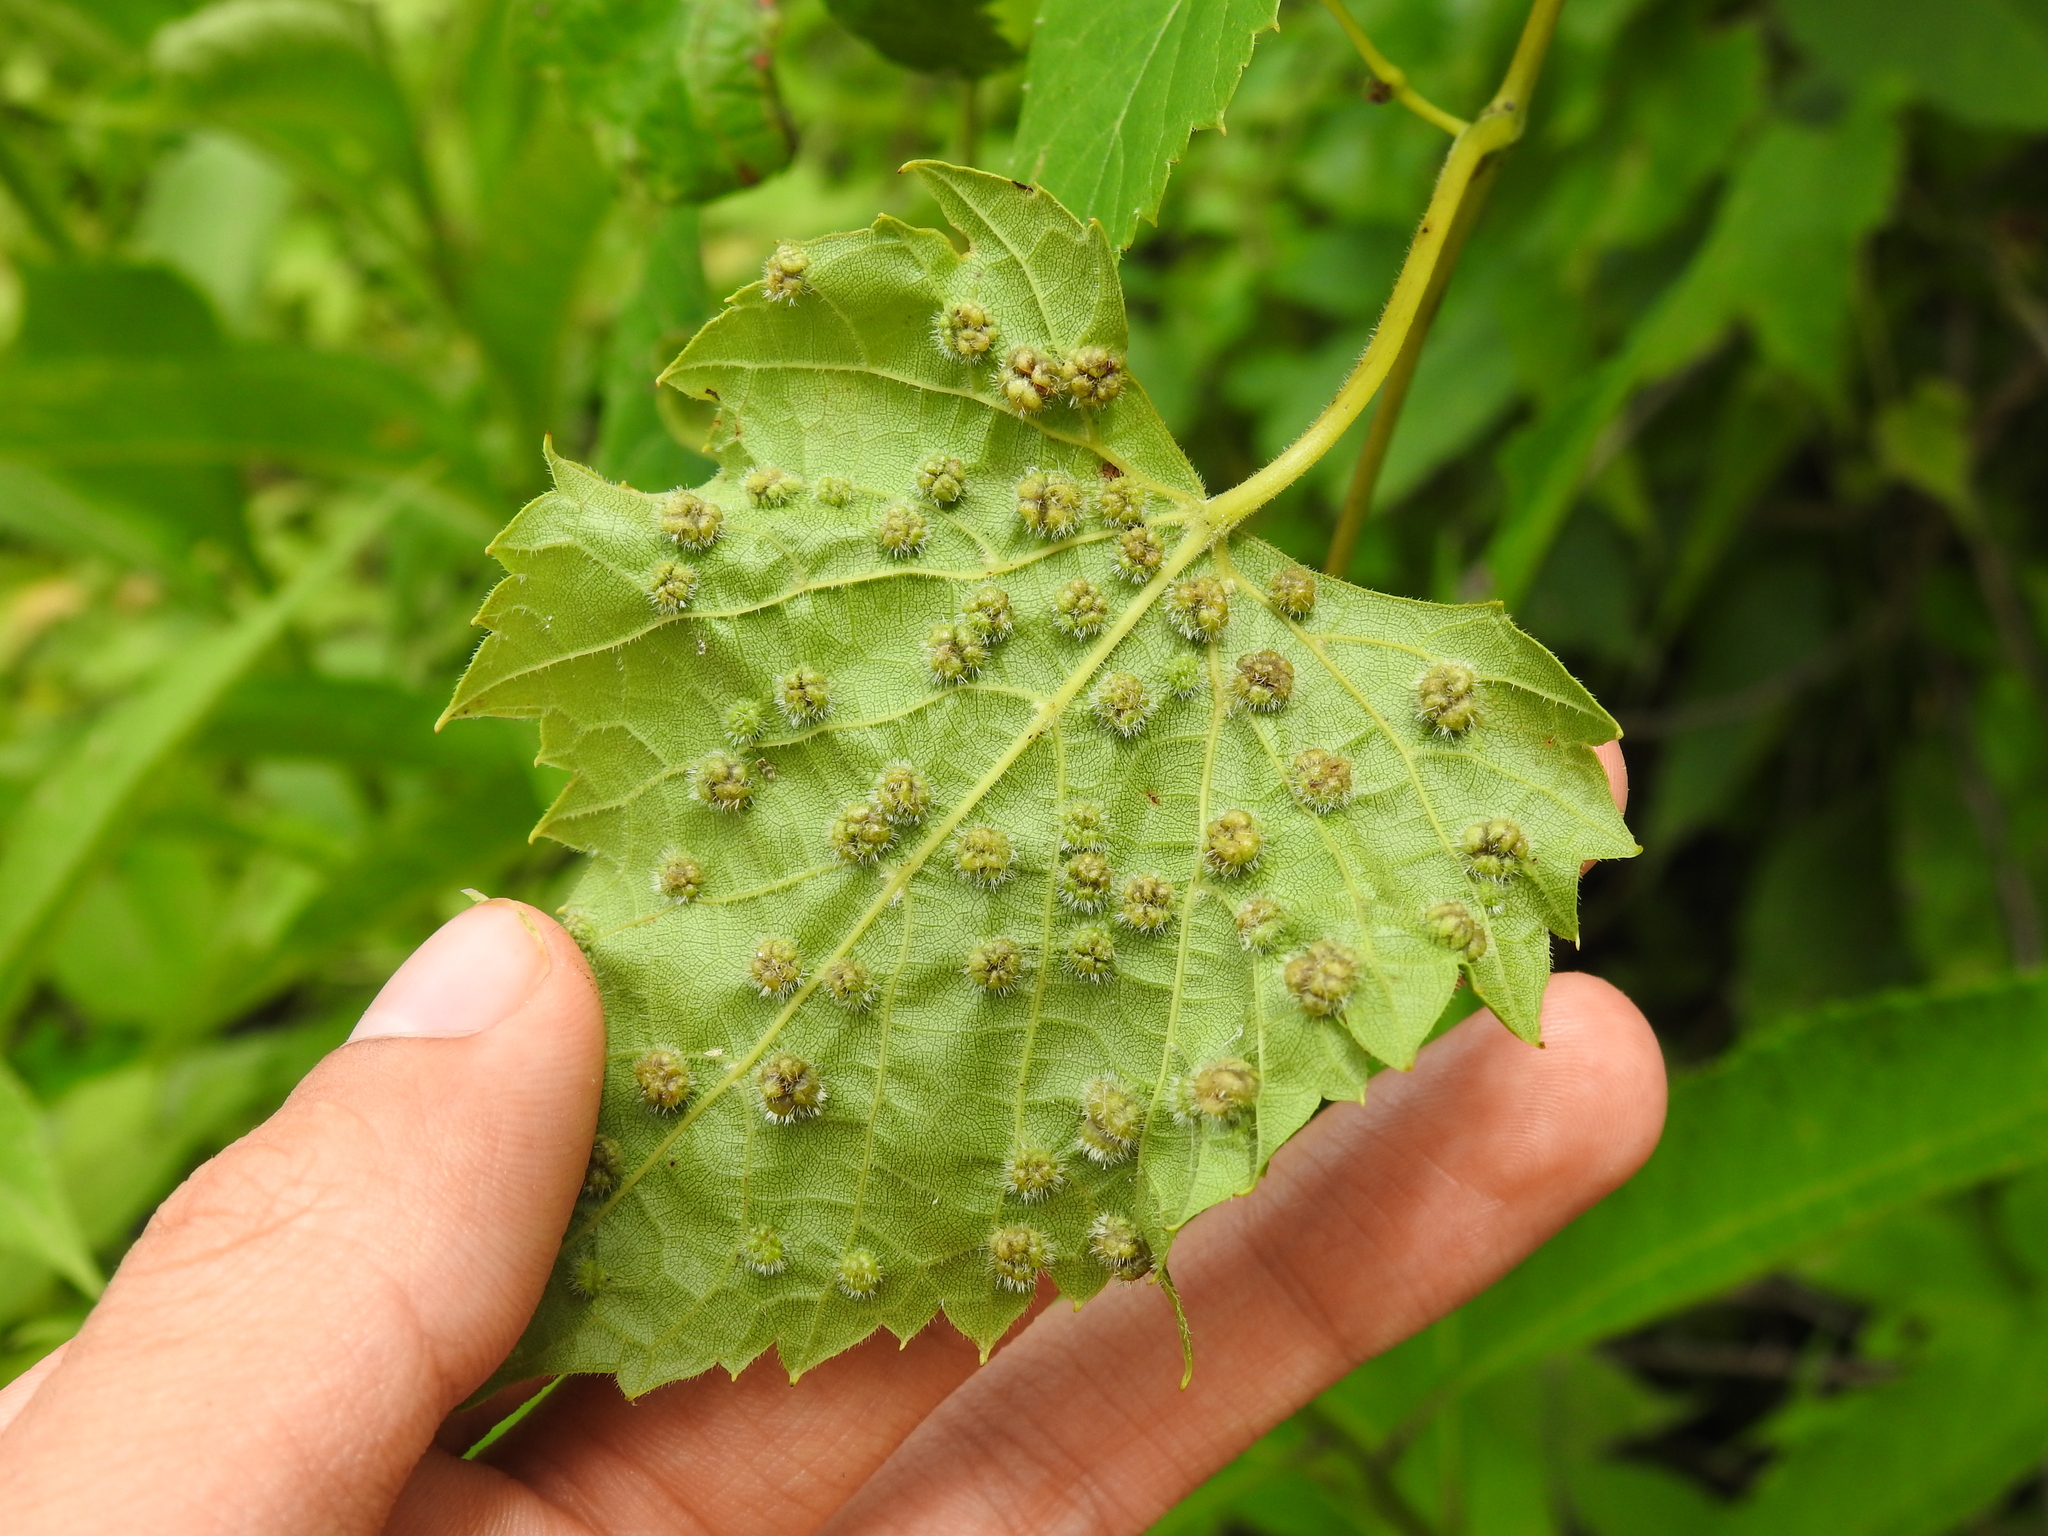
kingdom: Animalia
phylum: Arthropoda
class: Insecta
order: Hemiptera
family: Phylloxeridae
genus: Daktulosphaira
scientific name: Daktulosphaira vitifoliae
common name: Grape phylloxera
